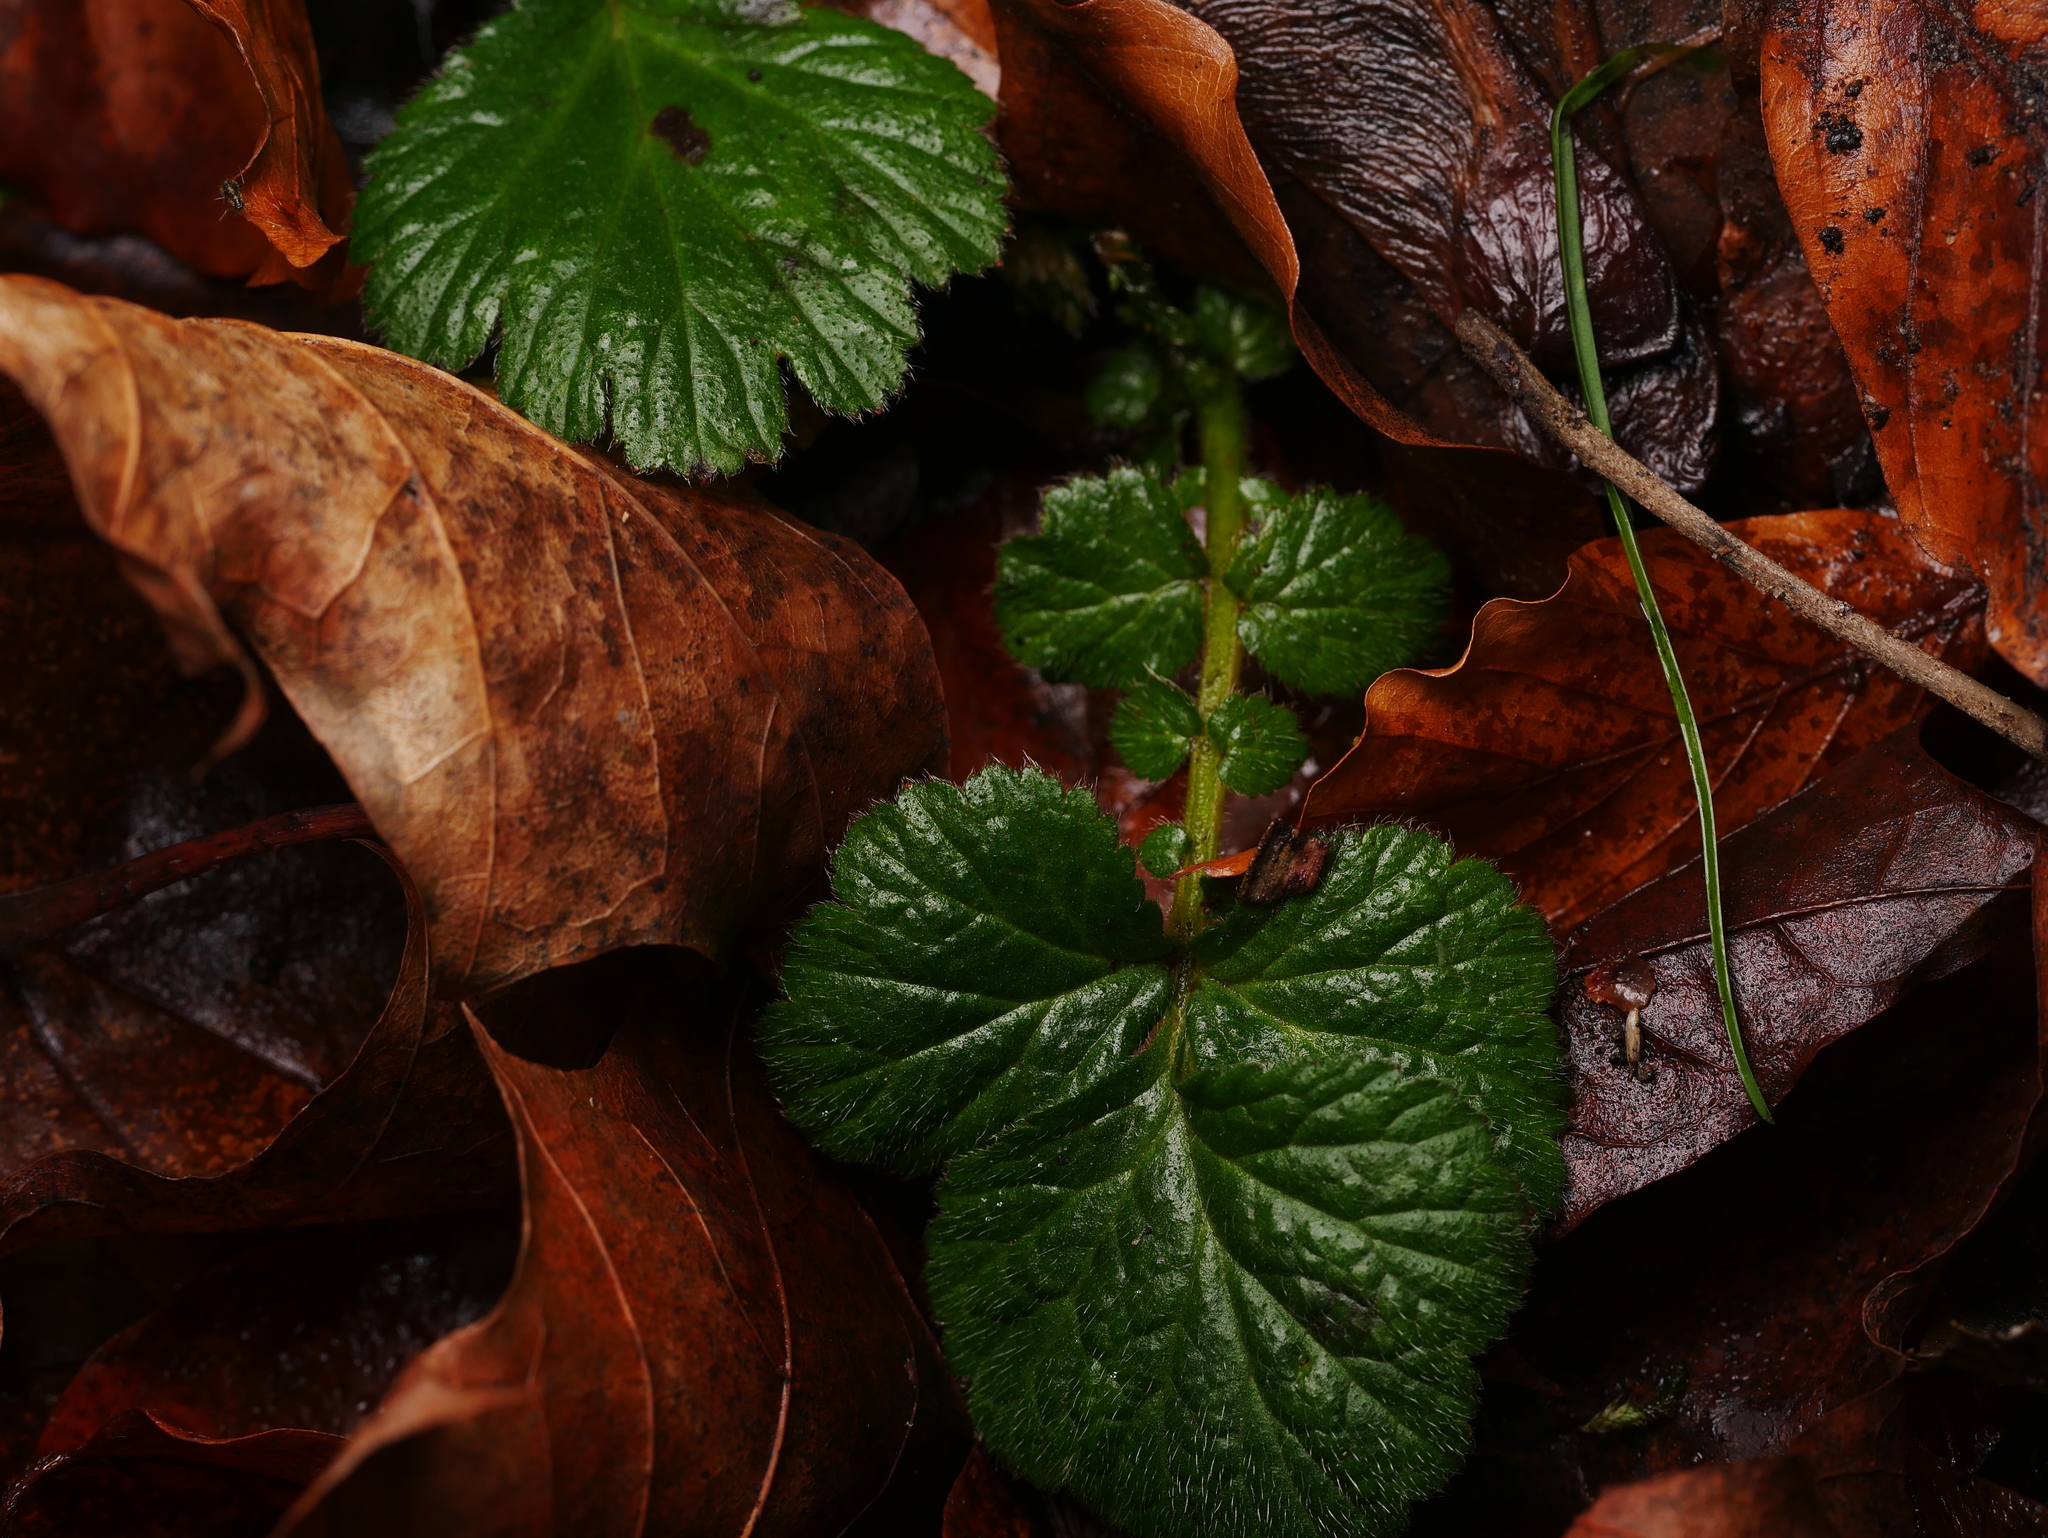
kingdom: Plantae
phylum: Tracheophyta
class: Magnoliopsida
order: Rosales
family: Rosaceae
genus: Geum
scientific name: Geum urbanum
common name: Wood avens
